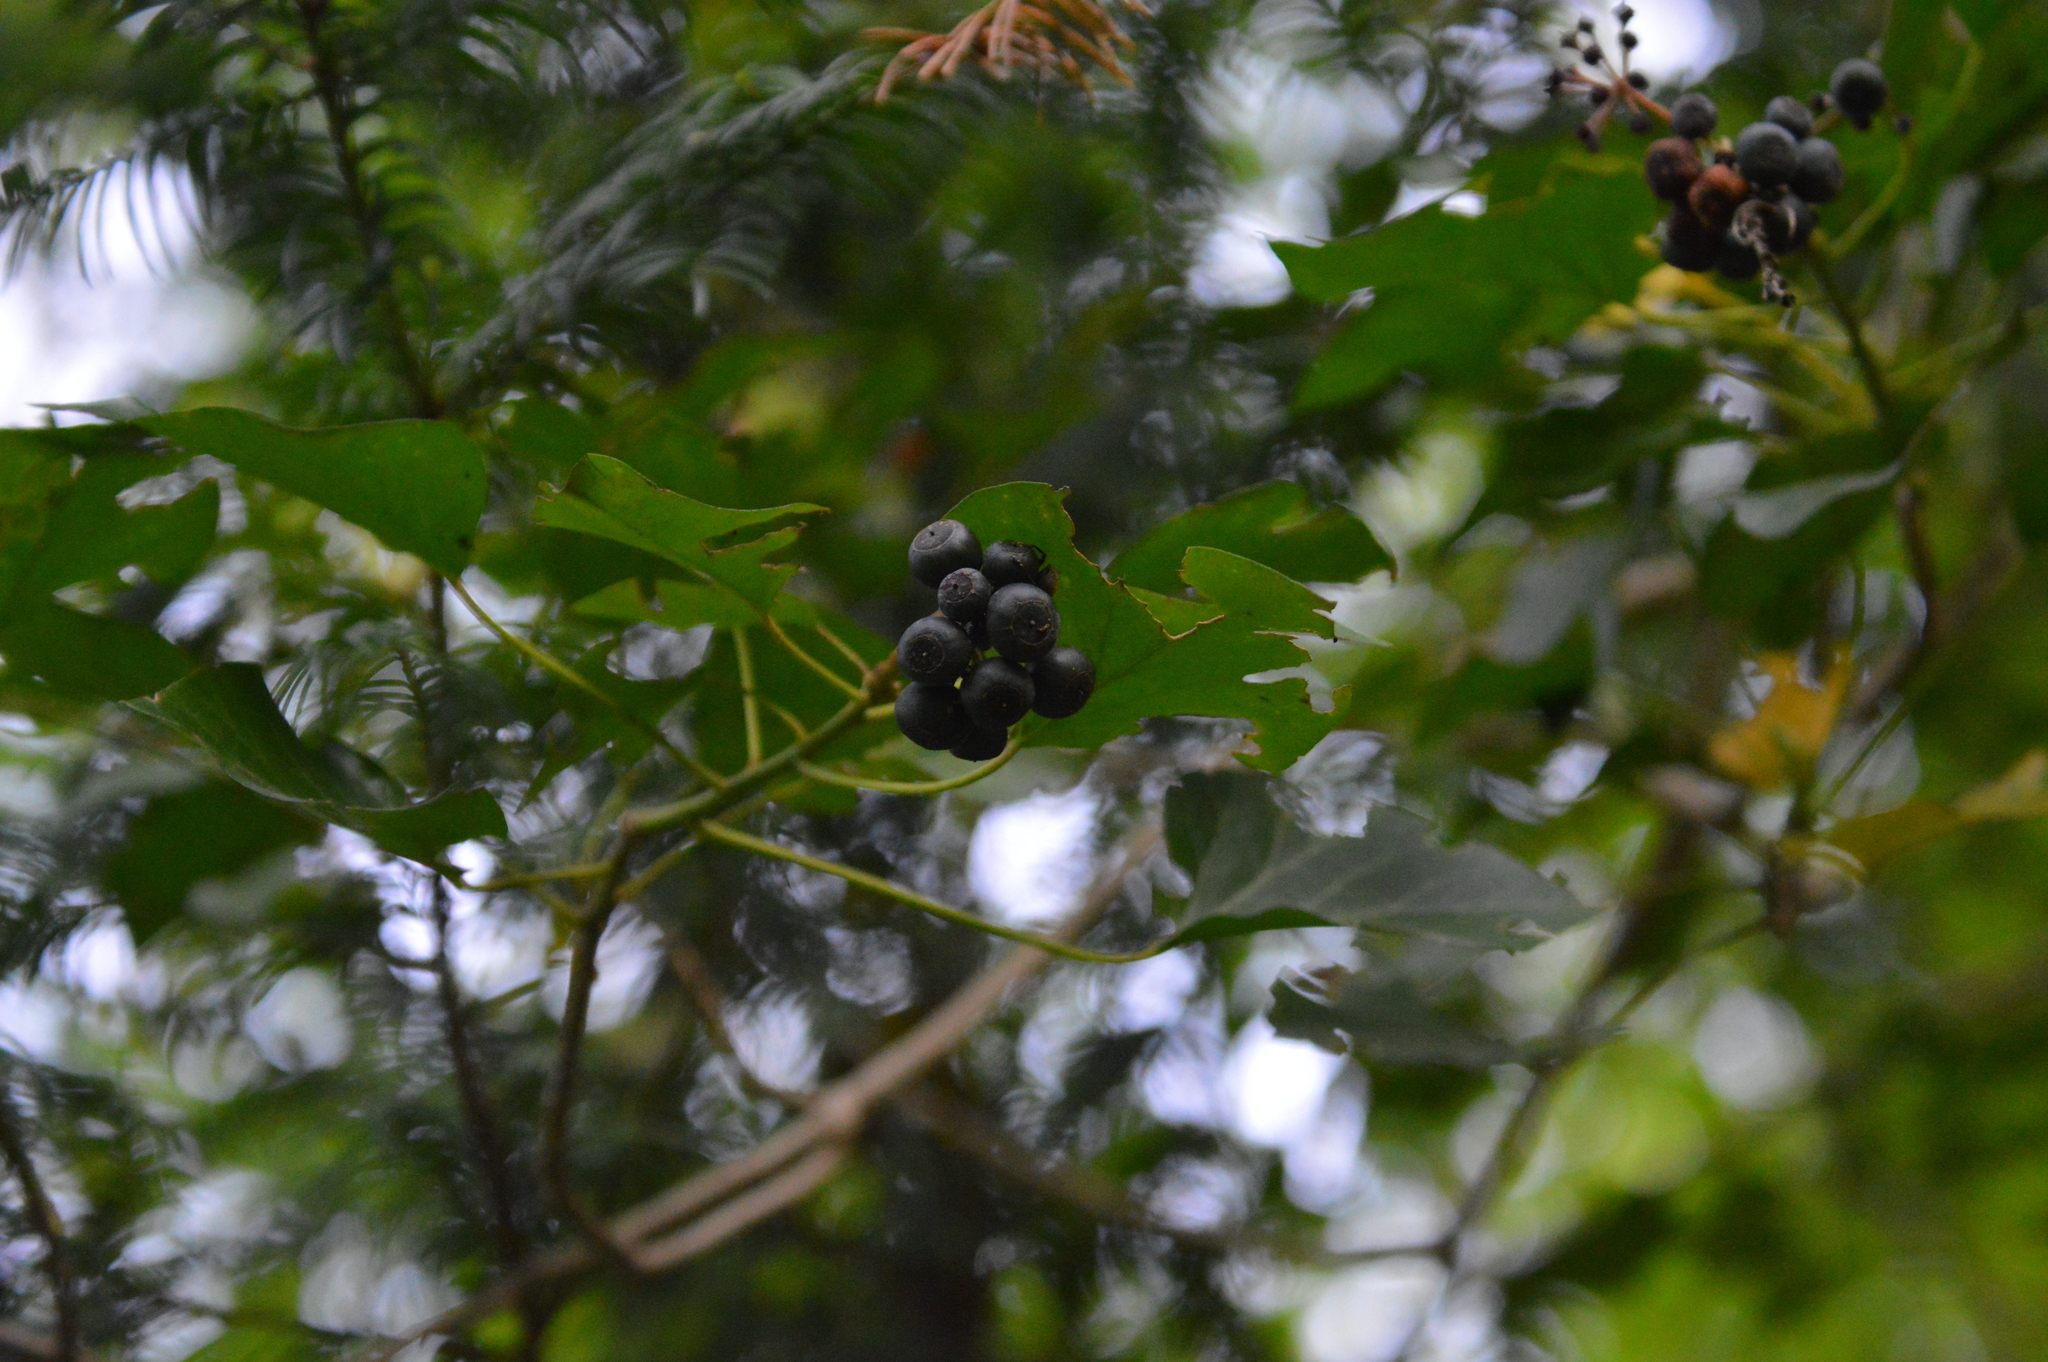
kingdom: Plantae
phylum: Tracheophyta
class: Magnoliopsida
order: Apiales
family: Araliaceae
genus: Hedera
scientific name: Hedera helix
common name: Ivy
